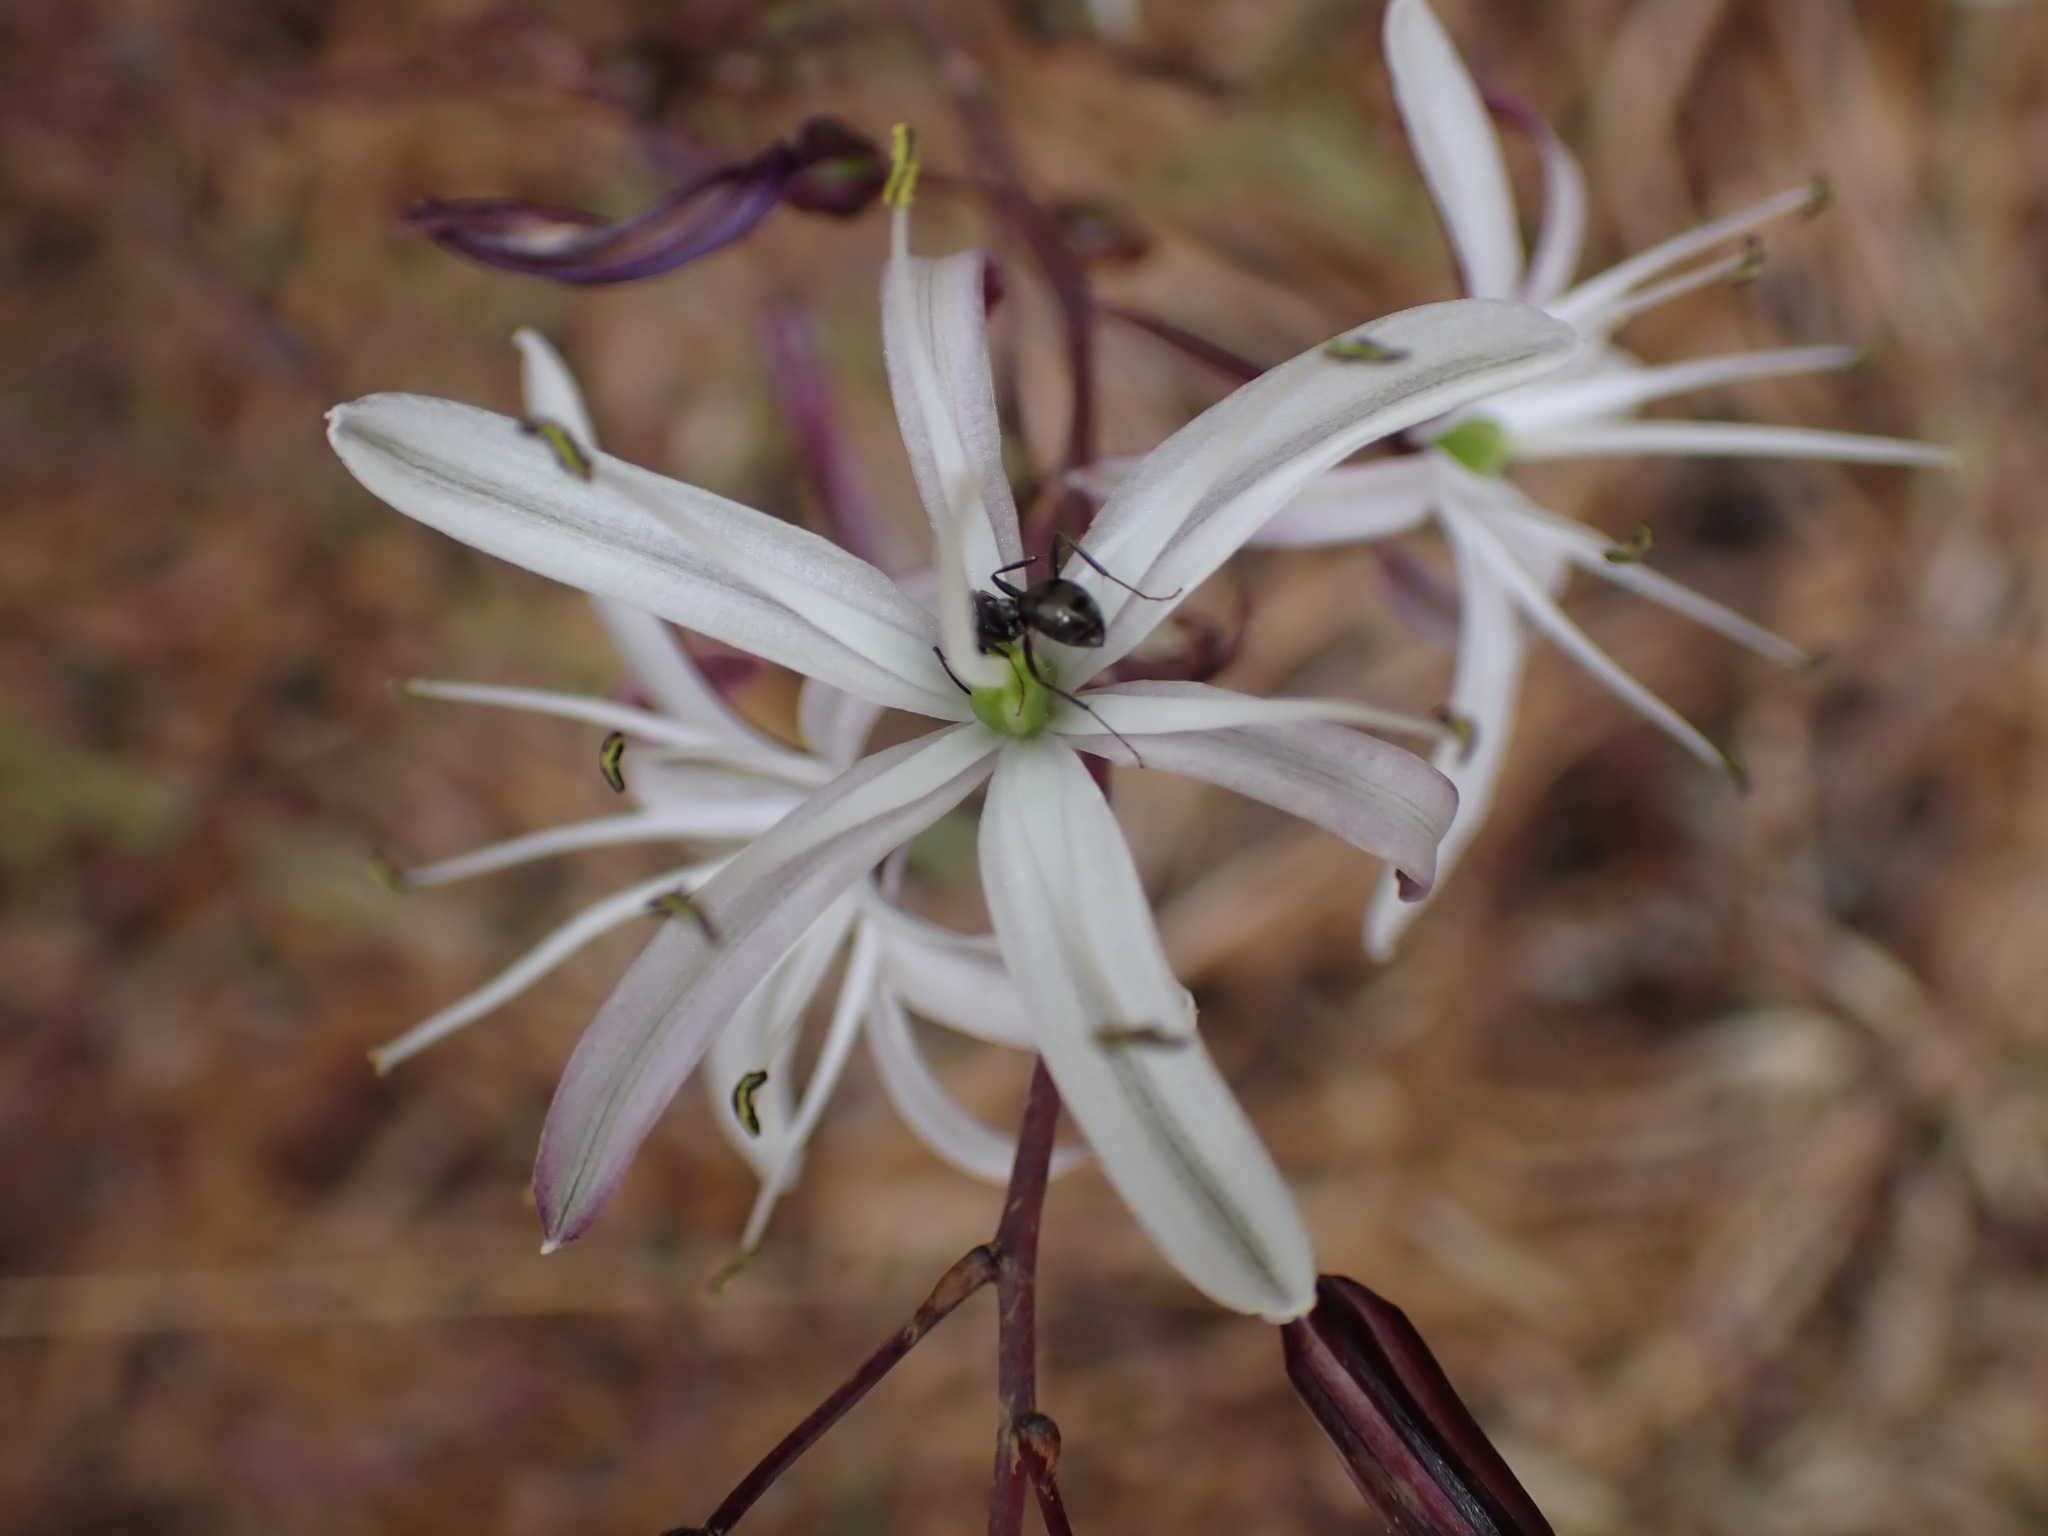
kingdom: Plantae
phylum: Tracheophyta
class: Liliopsida
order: Asparagales
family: Asparagaceae
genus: Chlorogalum
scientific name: Chlorogalum pomeridianum
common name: Amole
